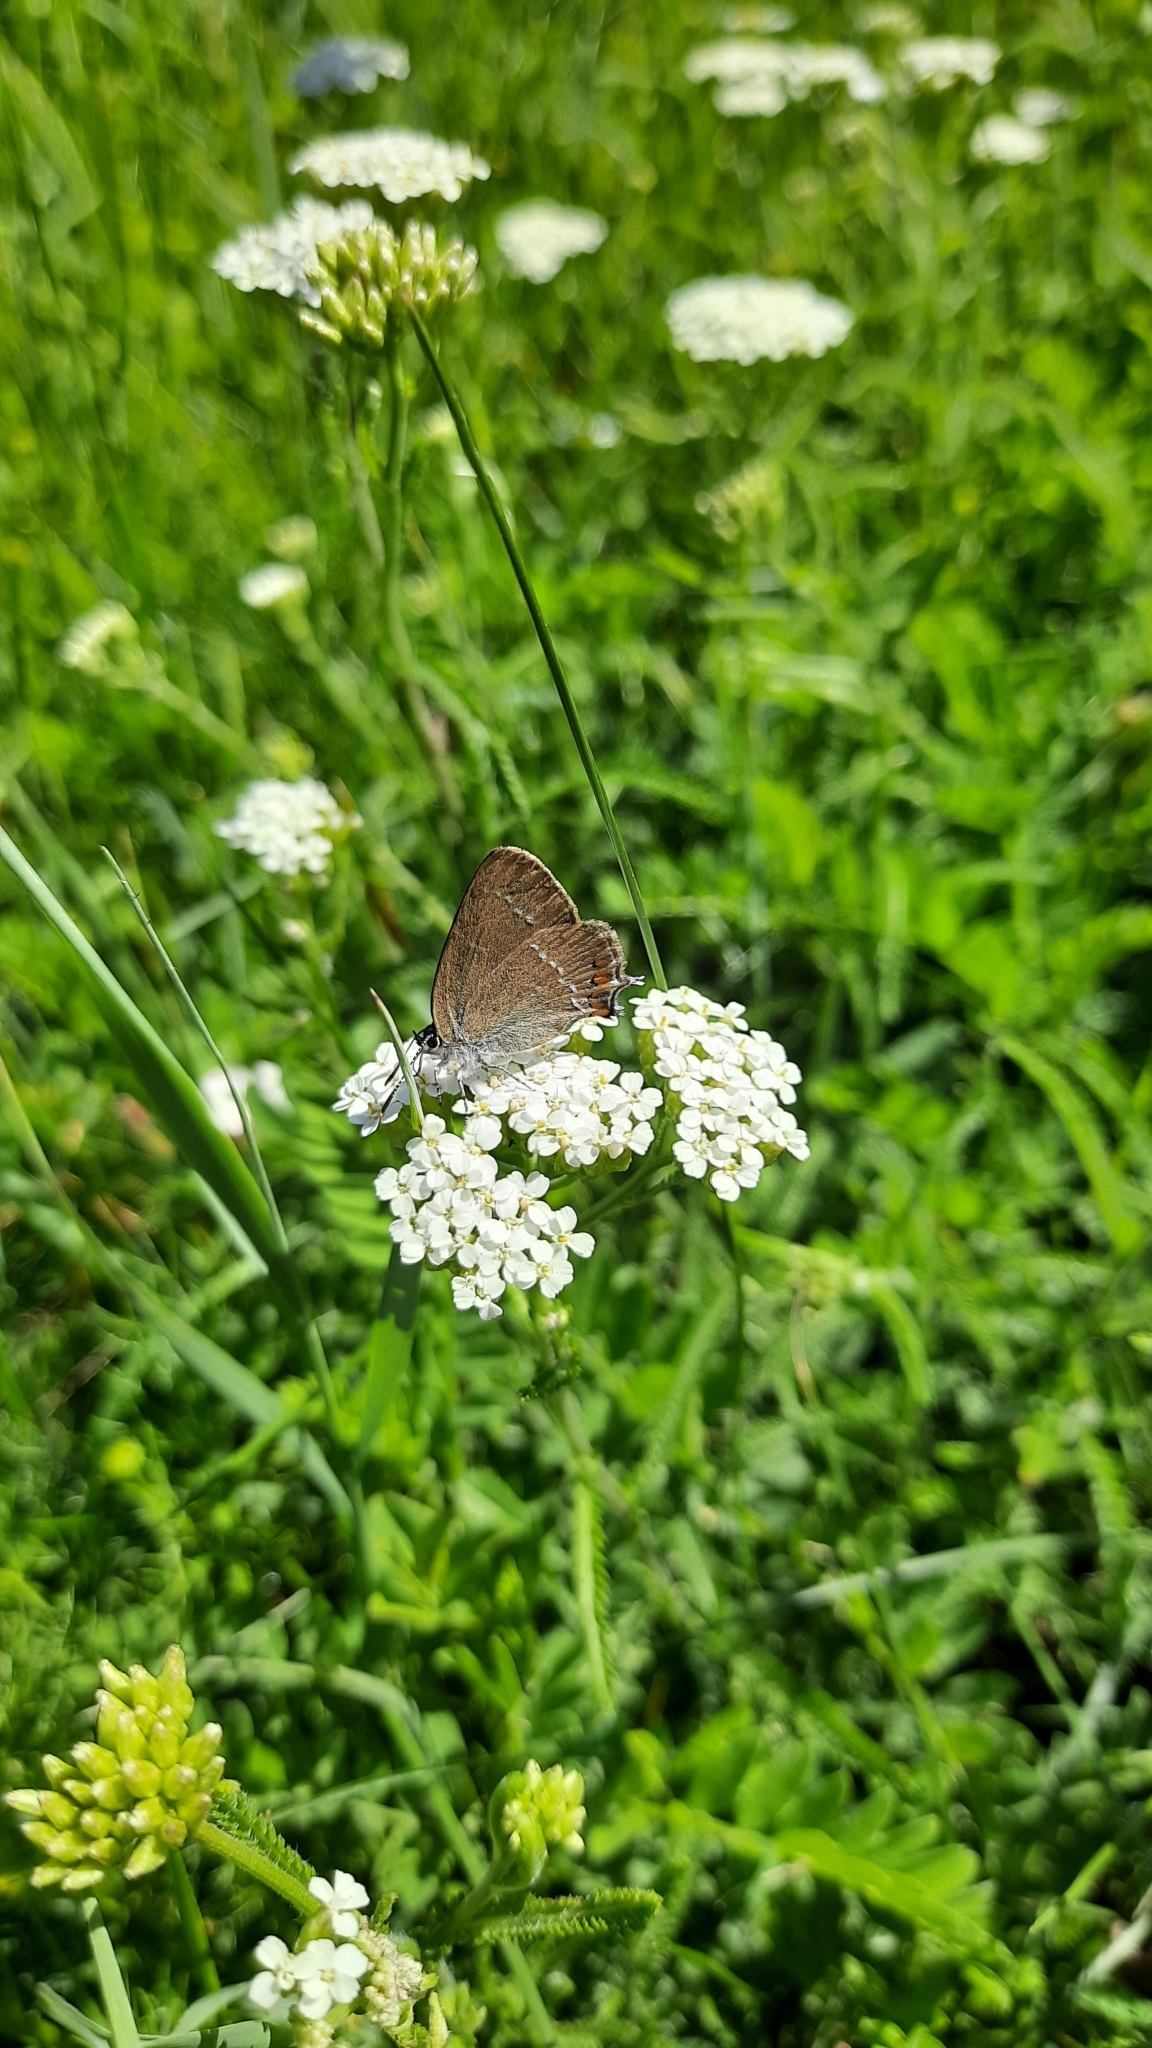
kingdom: Animalia
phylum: Arthropoda
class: Insecta
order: Lepidoptera
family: Lycaenidae
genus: Strymon
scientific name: Strymon acaciae
